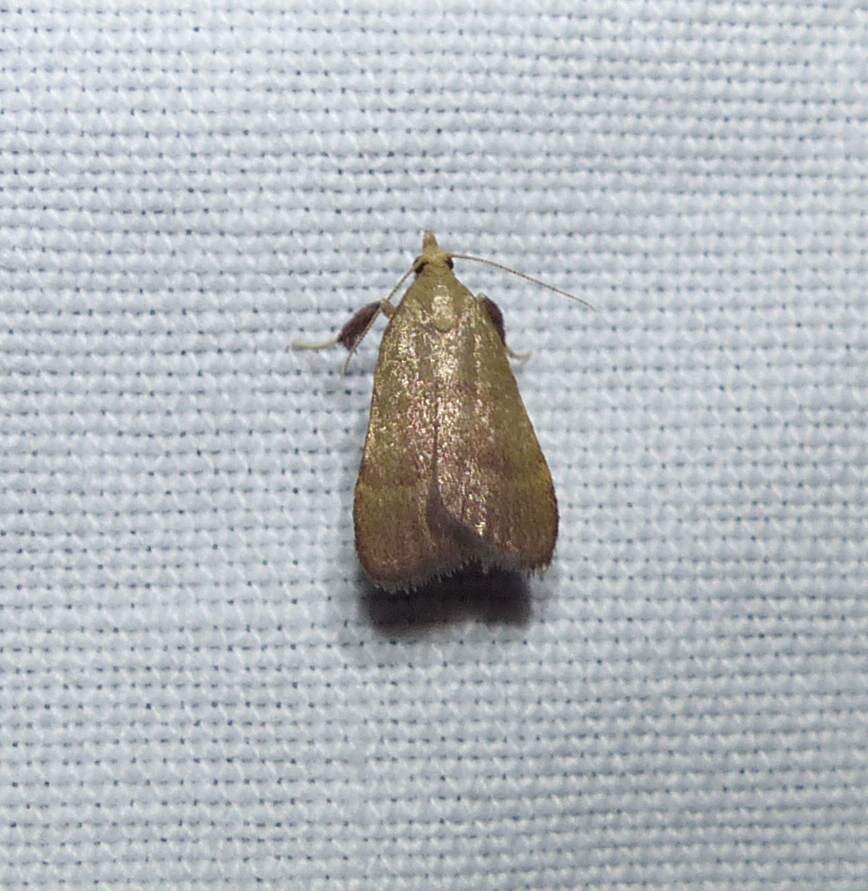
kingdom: Animalia
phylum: Arthropoda
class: Insecta
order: Lepidoptera
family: Pyralidae
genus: Condylolomia
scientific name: Condylolomia participialis
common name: Drab condylolomia moth
